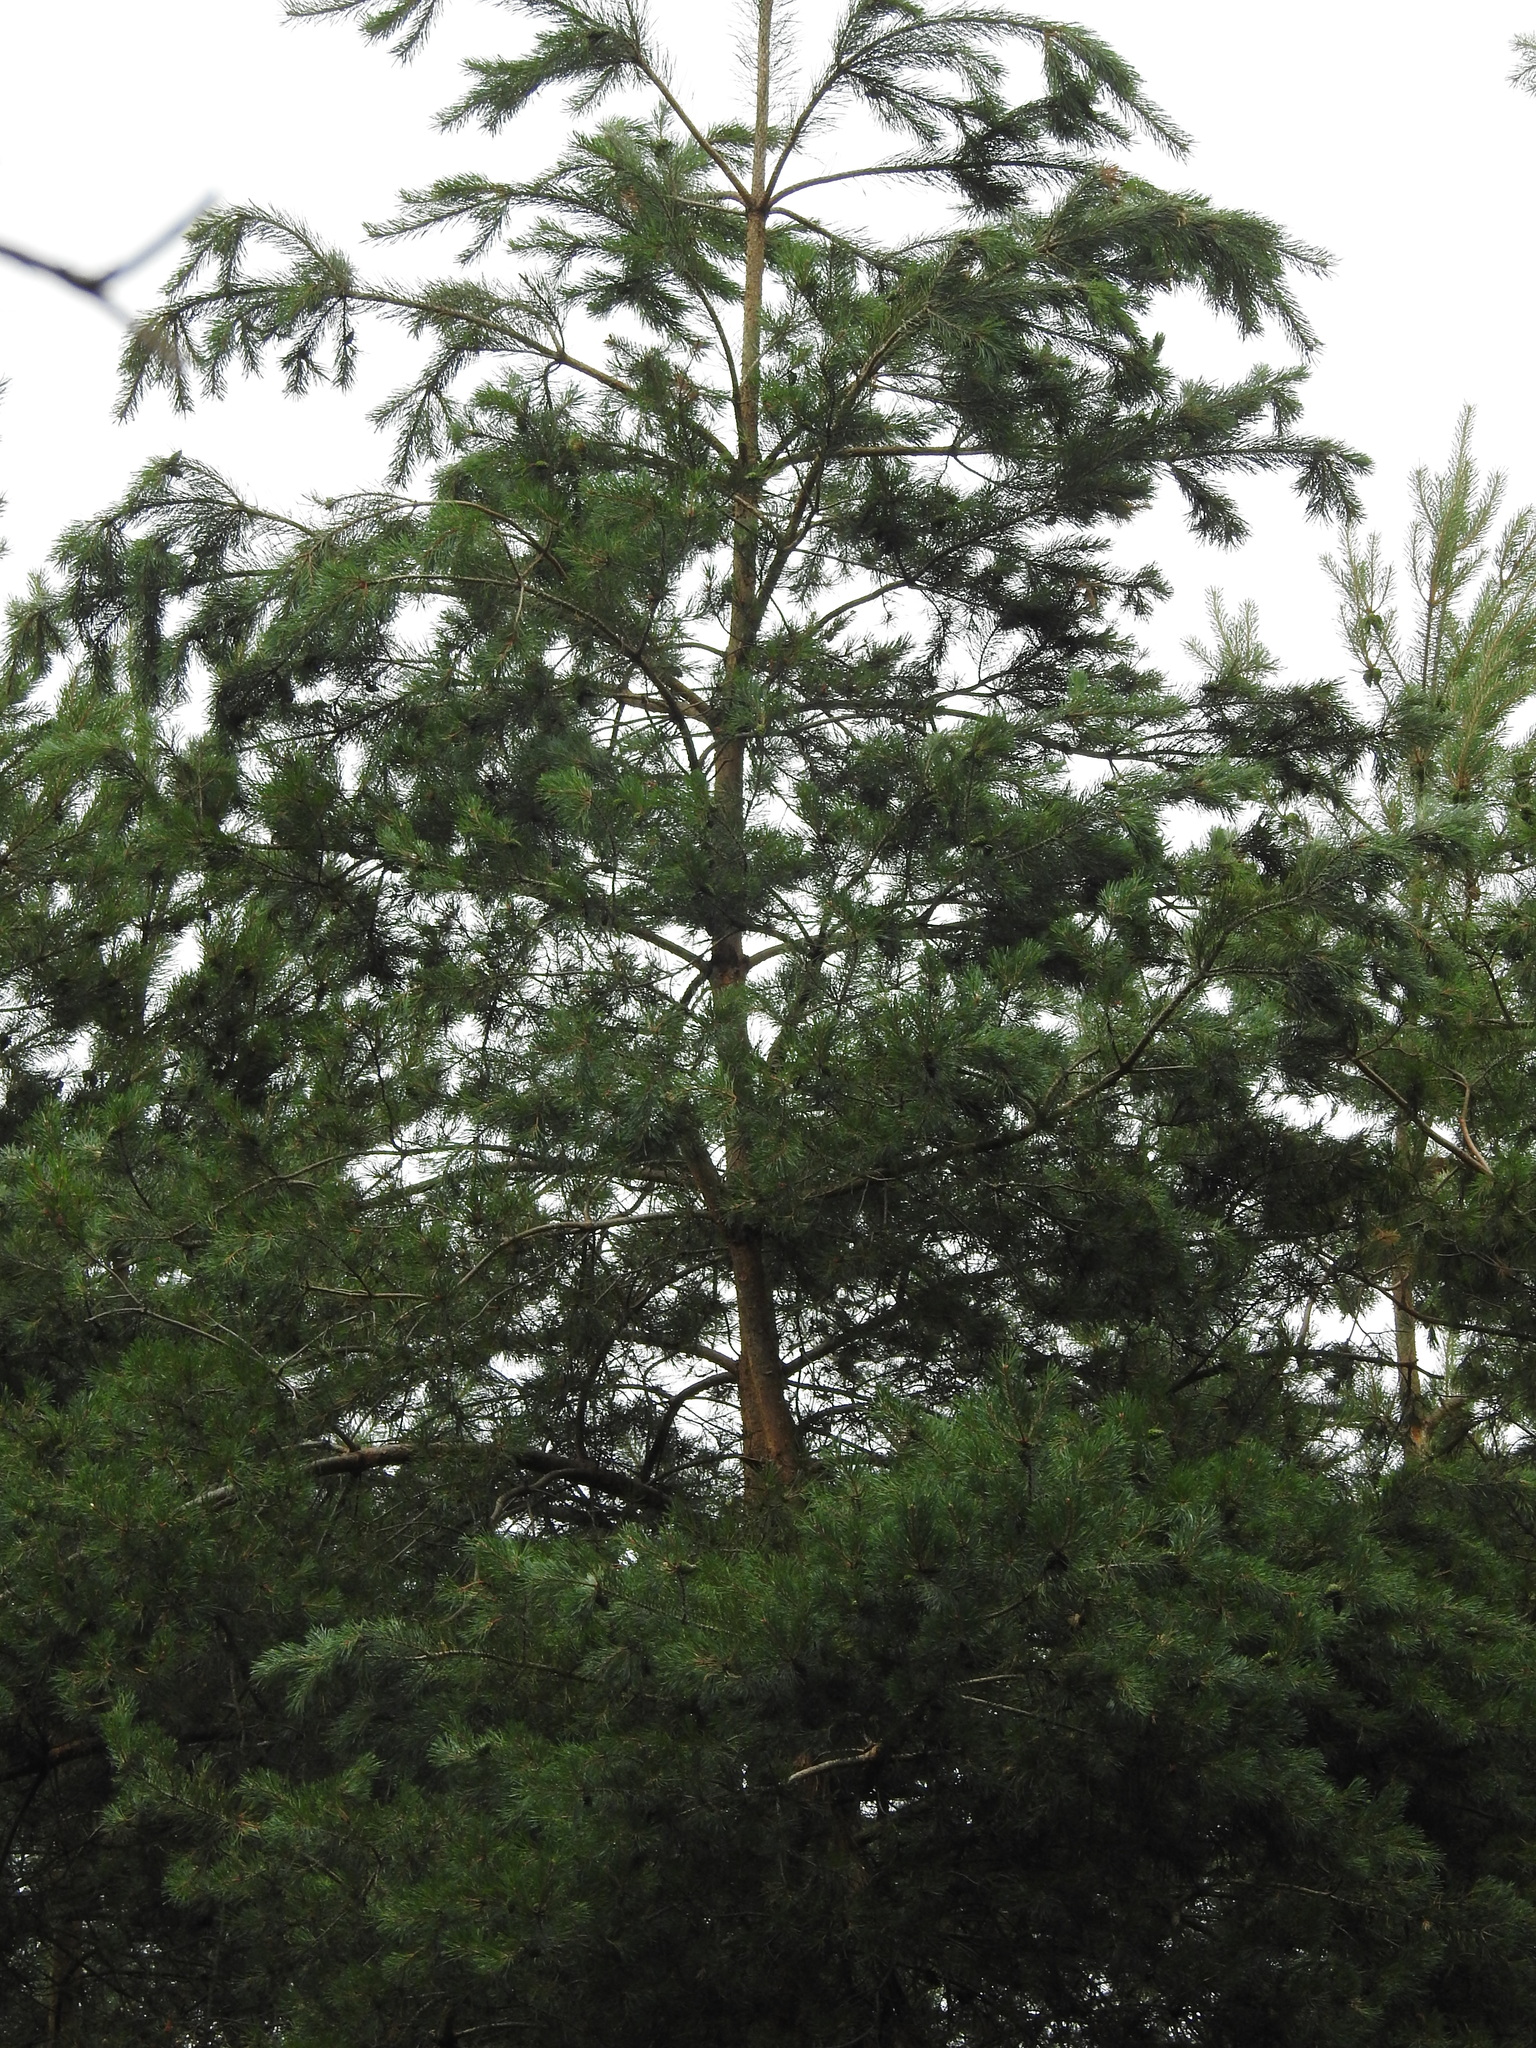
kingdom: Plantae
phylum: Tracheophyta
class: Pinopsida
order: Pinales
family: Pinaceae
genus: Pinus
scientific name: Pinus sylvestris
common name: Scots pine
